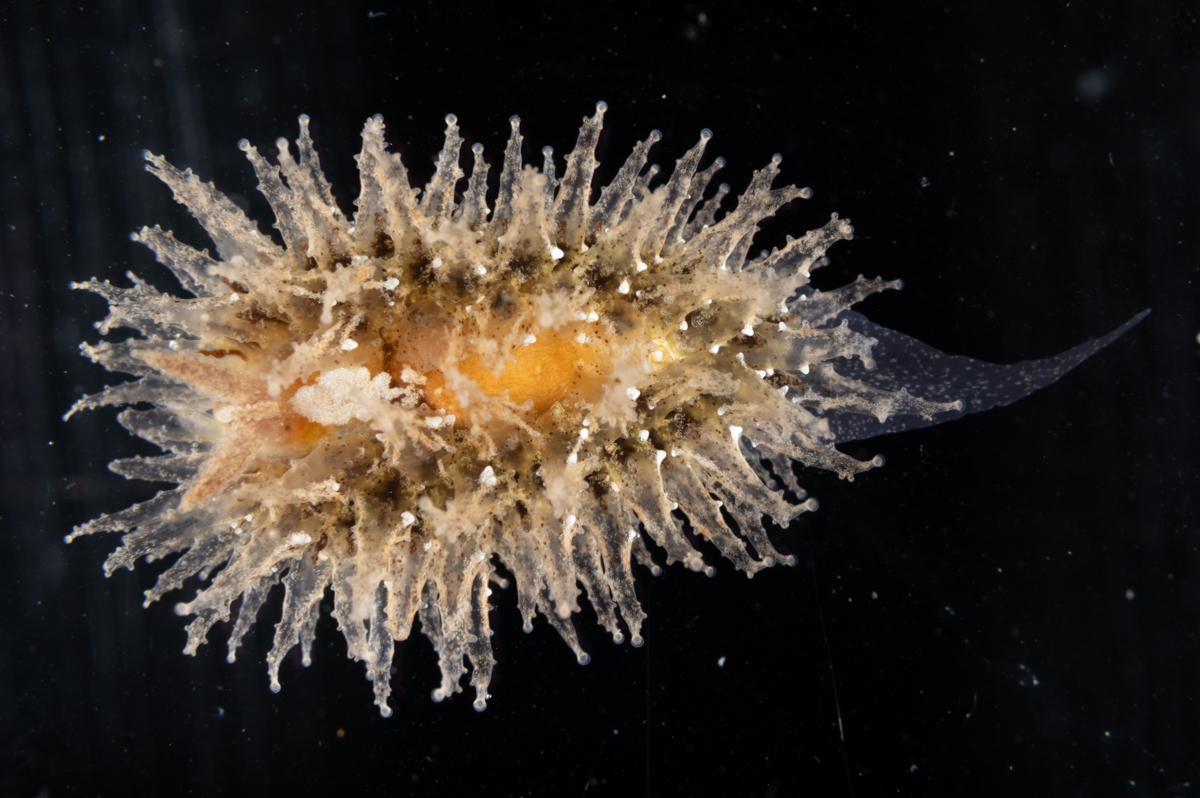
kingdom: Animalia
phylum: Mollusca
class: Gastropoda
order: Nudibranchia
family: Janolidae
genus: Janolus
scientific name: Janolus hyalinus
